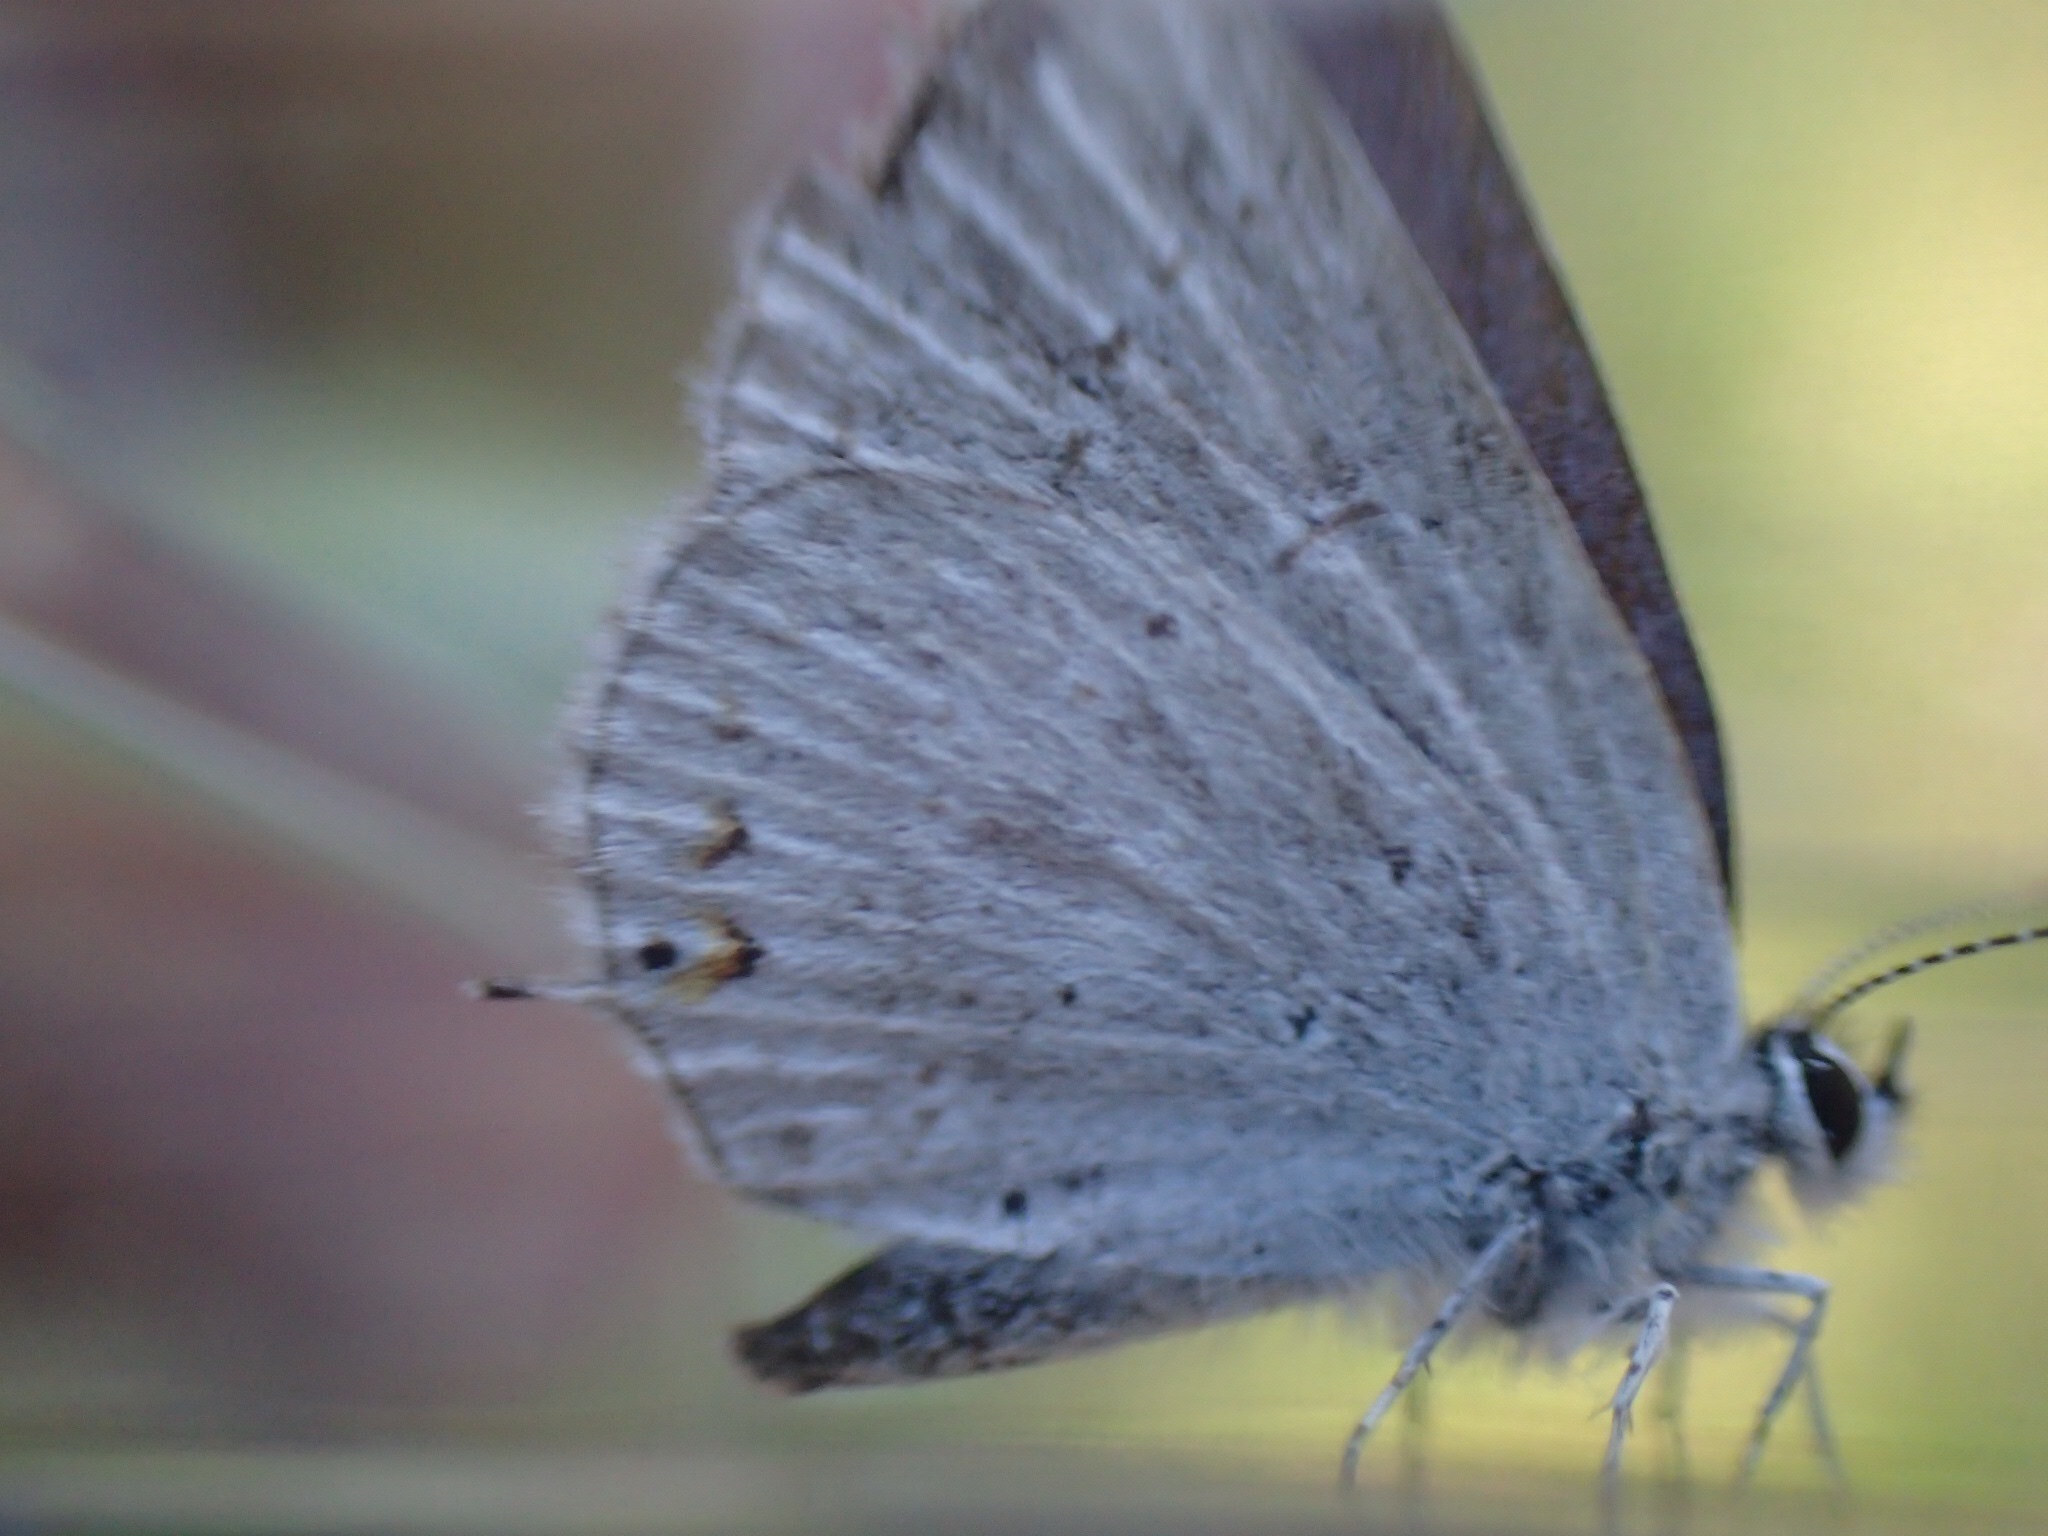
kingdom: Animalia
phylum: Arthropoda
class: Insecta
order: Lepidoptera
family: Lycaenidae
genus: Elkalyce
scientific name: Elkalyce amyntula
